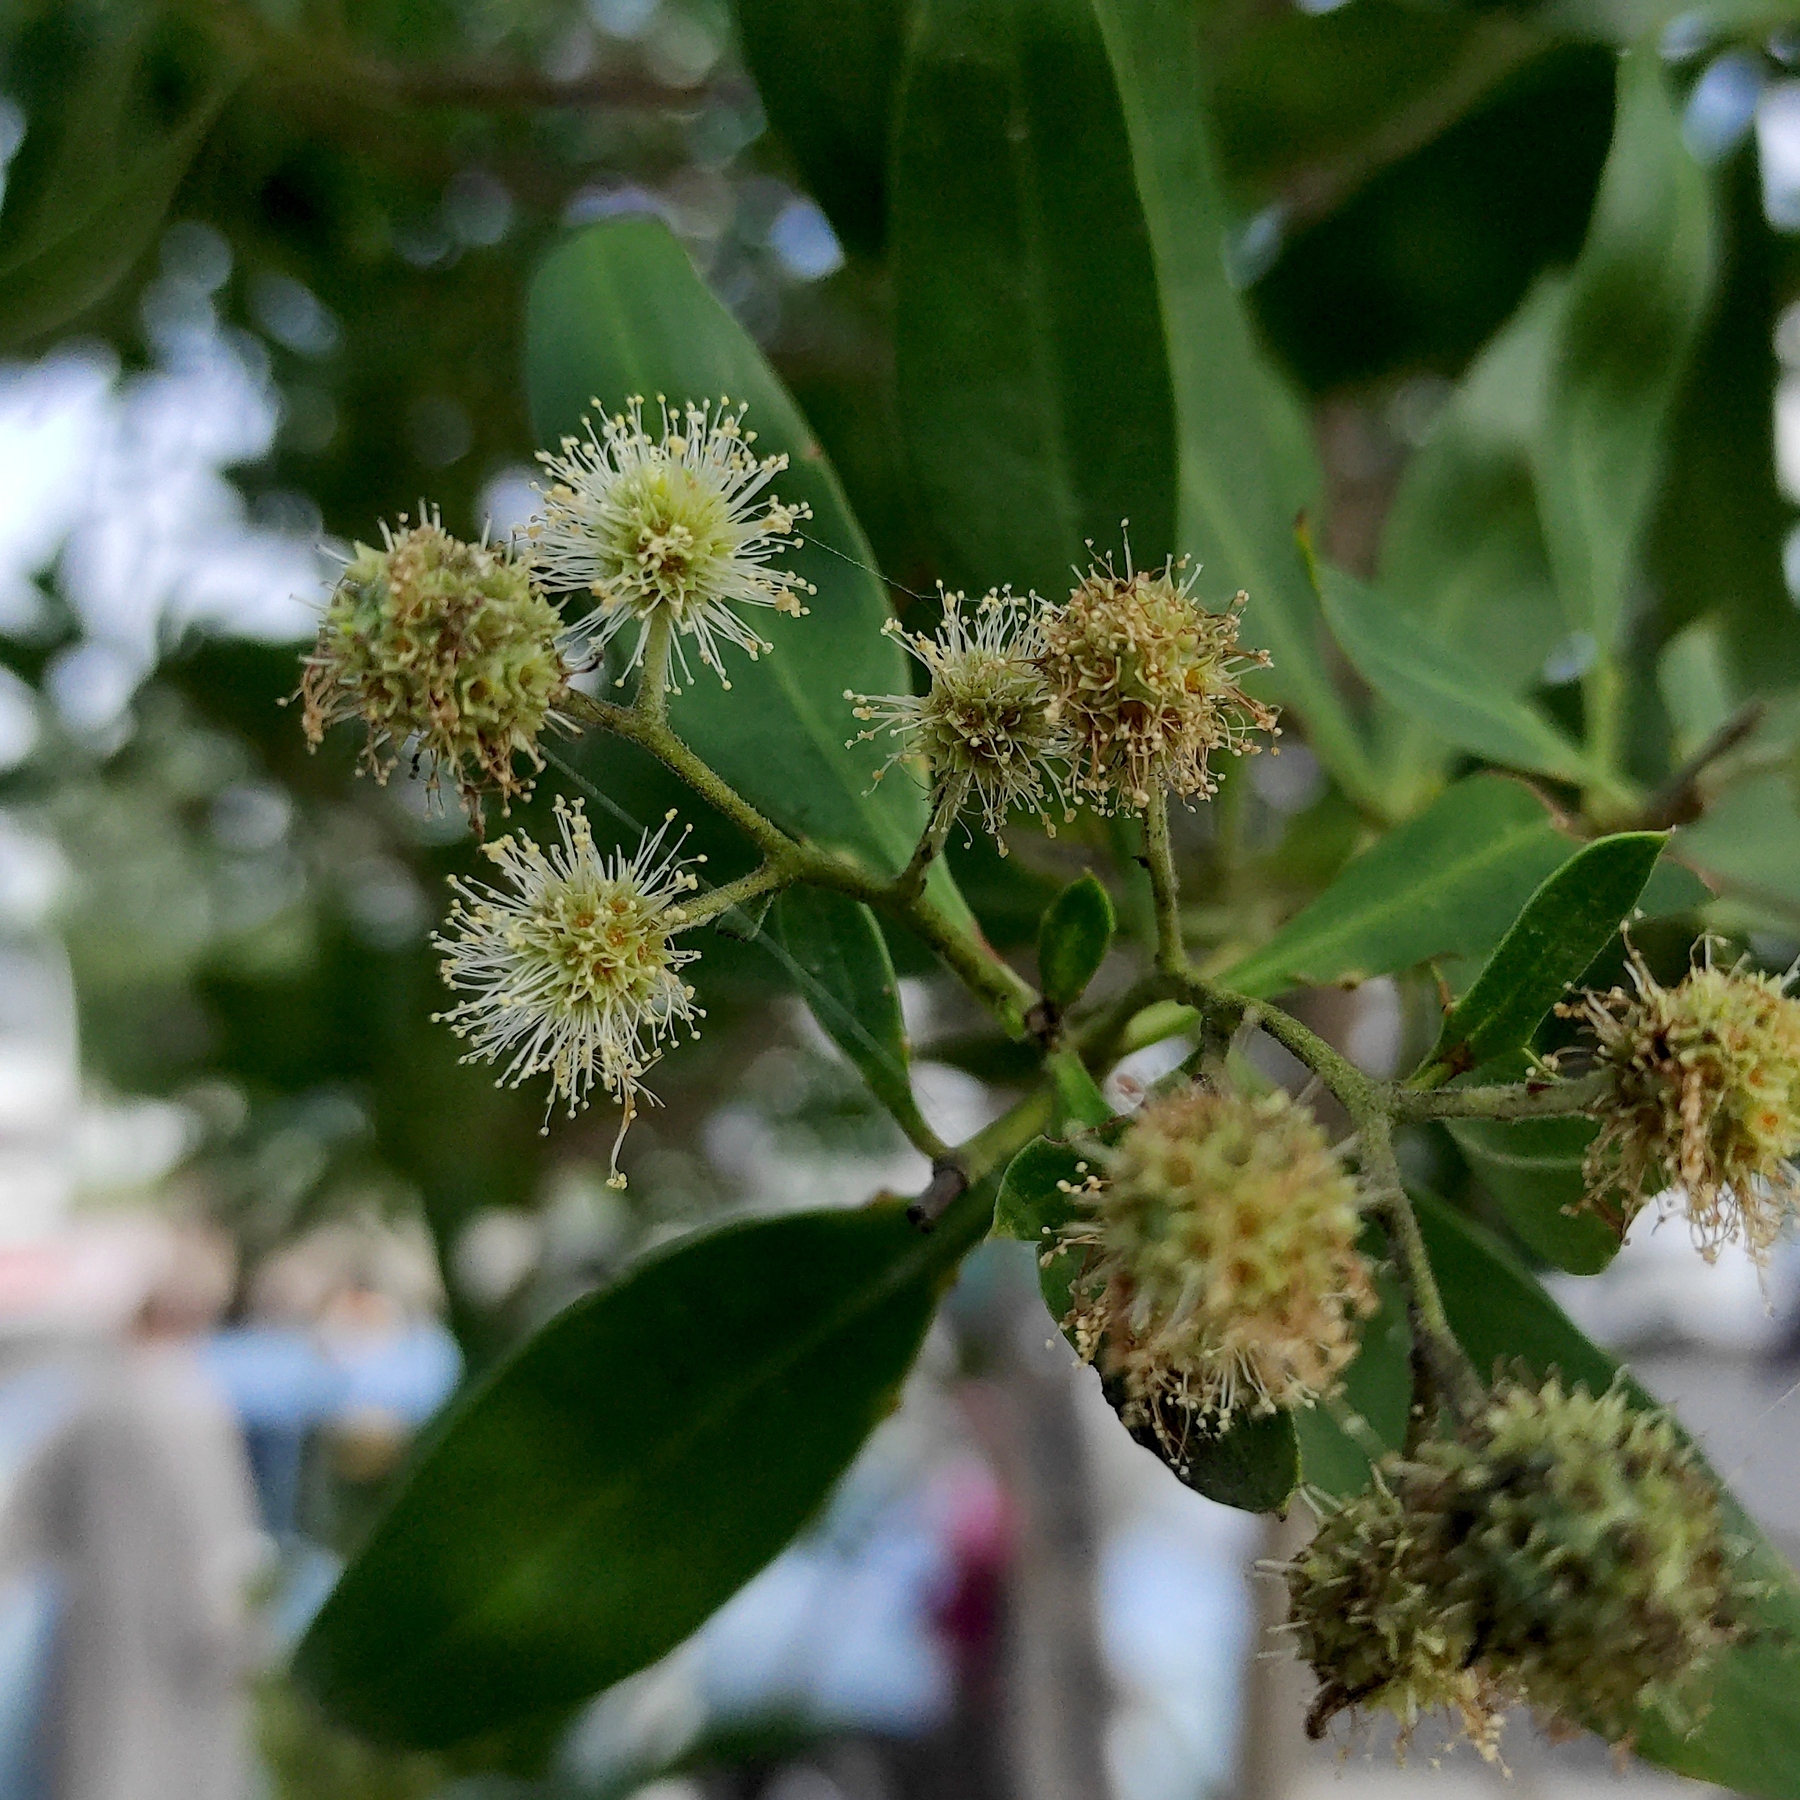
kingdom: Plantae
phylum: Tracheophyta
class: Magnoliopsida
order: Myrtales
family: Combretaceae
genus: Conocarpus
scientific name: Conocarpus lancifolius
